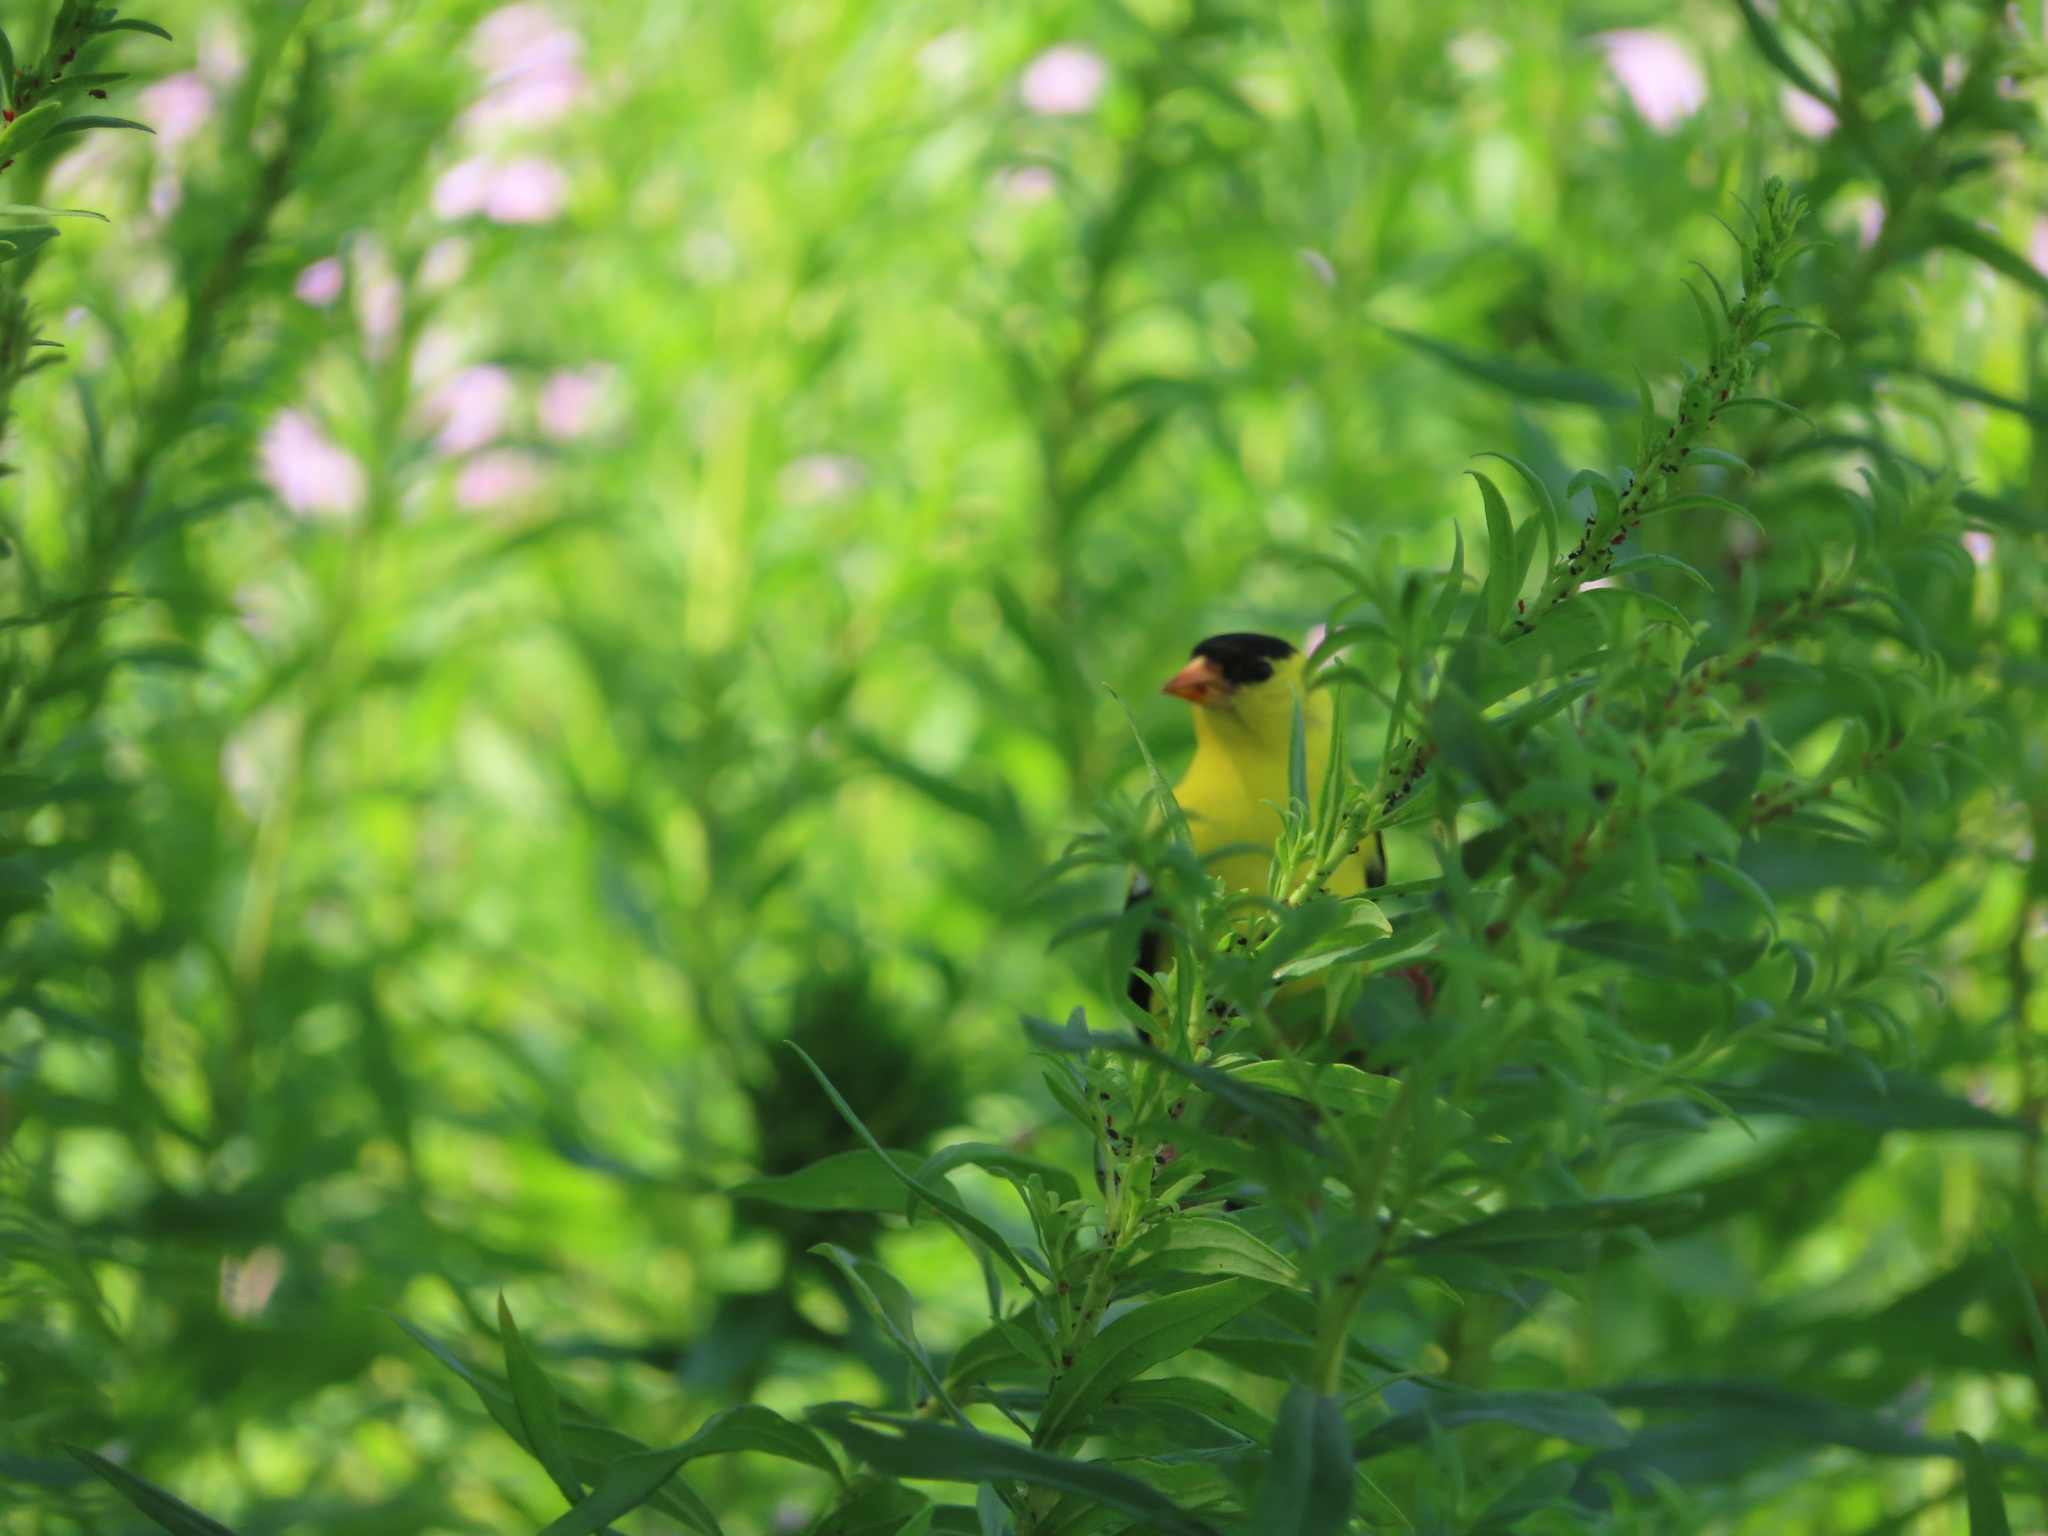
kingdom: Animalia
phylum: Chordata
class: Aves
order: Passeriformes
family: Fringillidae
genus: Spinus
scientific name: Spinus tristis
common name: American goldfinch
